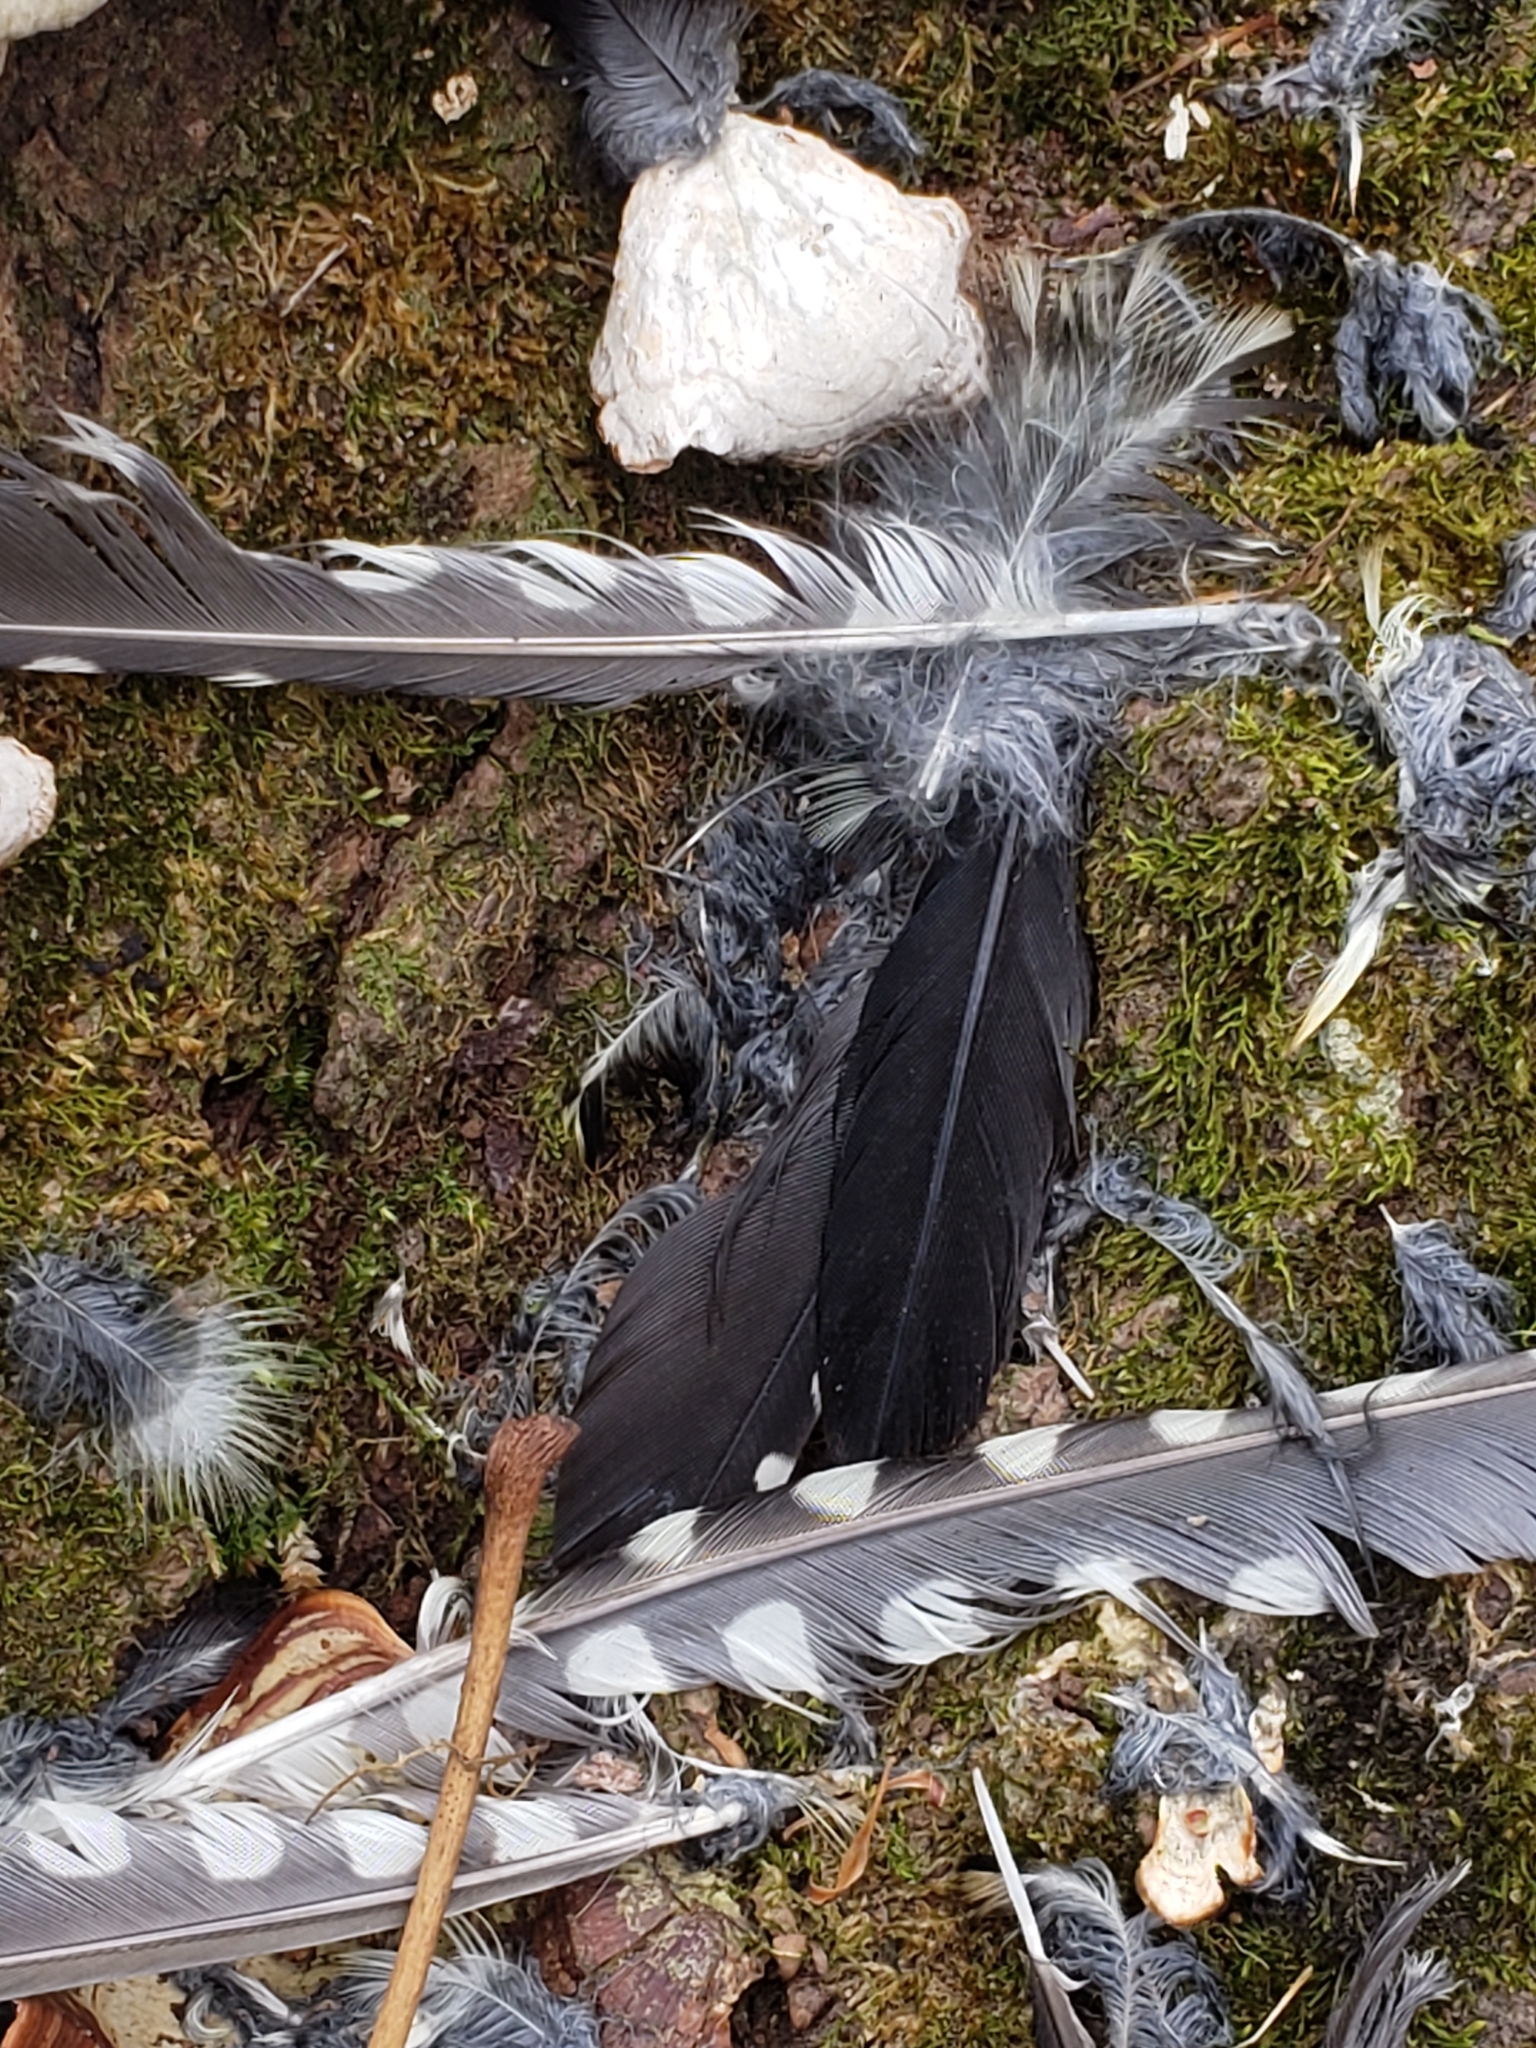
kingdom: Animalia
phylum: Chordata
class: Aves
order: Piciformes
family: Picidae
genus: Sphyrapicus
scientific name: Sphyrapicus varius
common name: Yellow-bellied sapsucker
